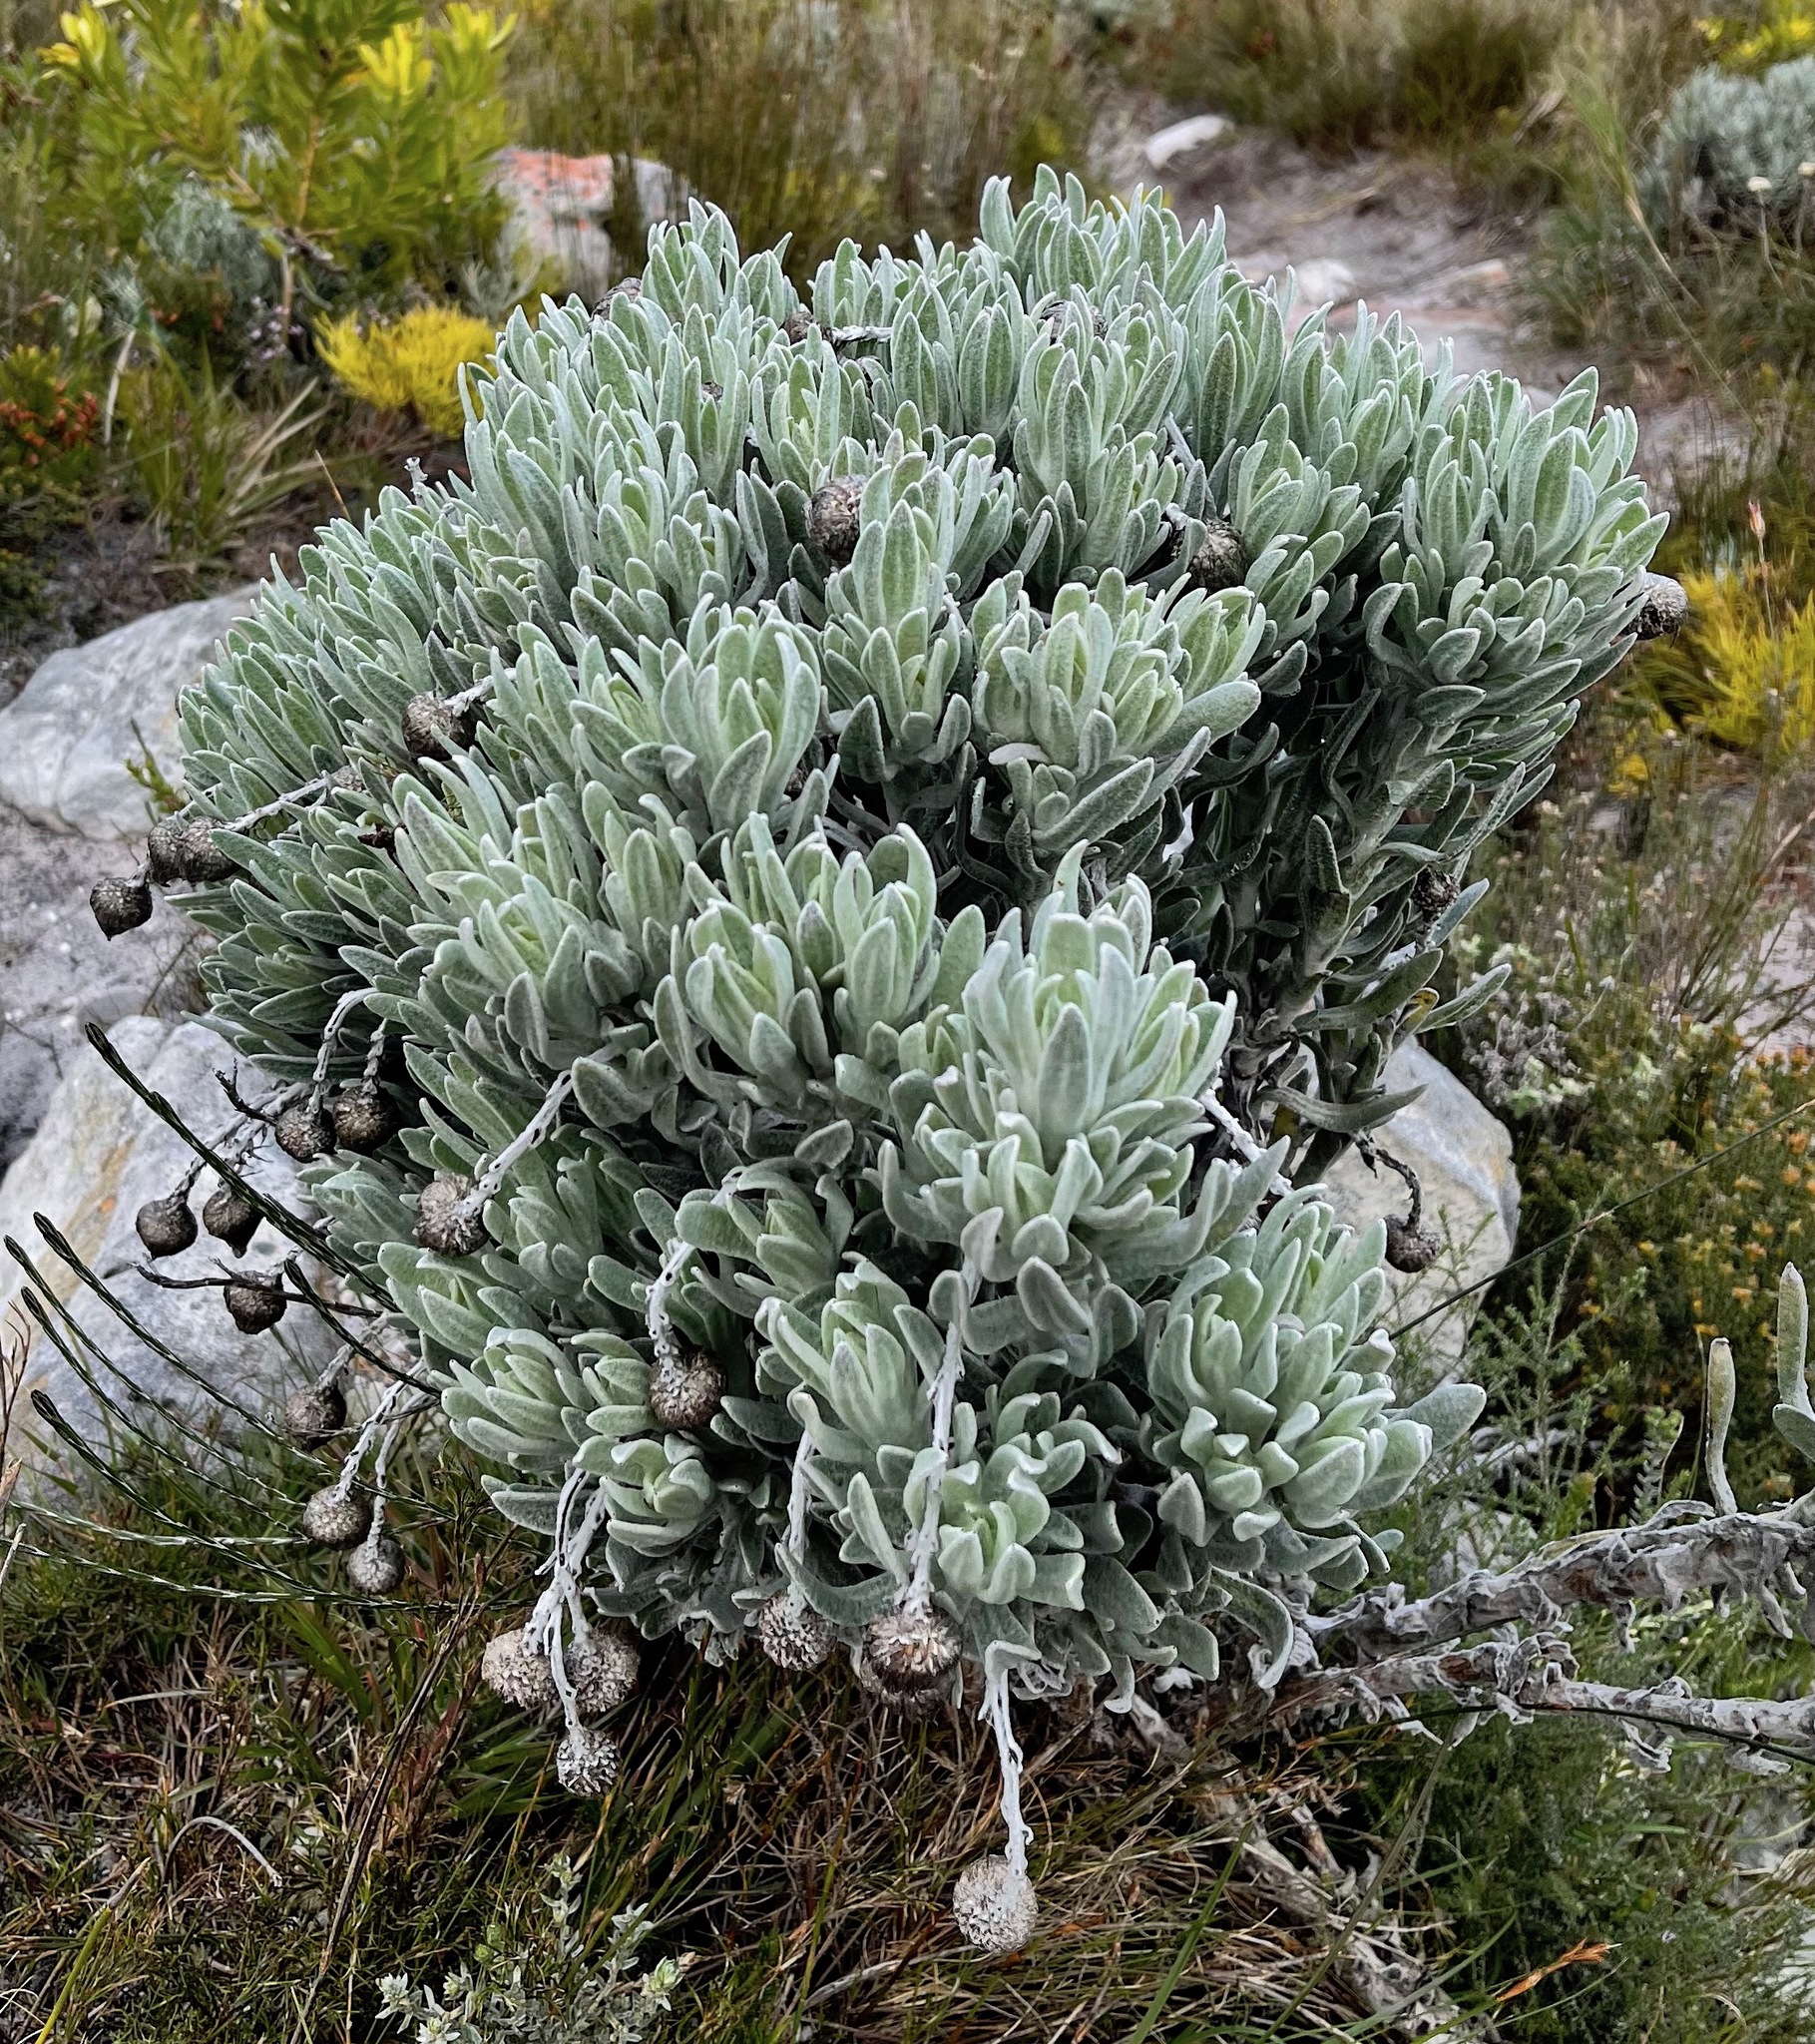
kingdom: Plantae
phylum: Tracheophyta
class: Magnoliopsida
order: Asterales
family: Asteraceae
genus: Syncarpha
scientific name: Syncarpha vestita
